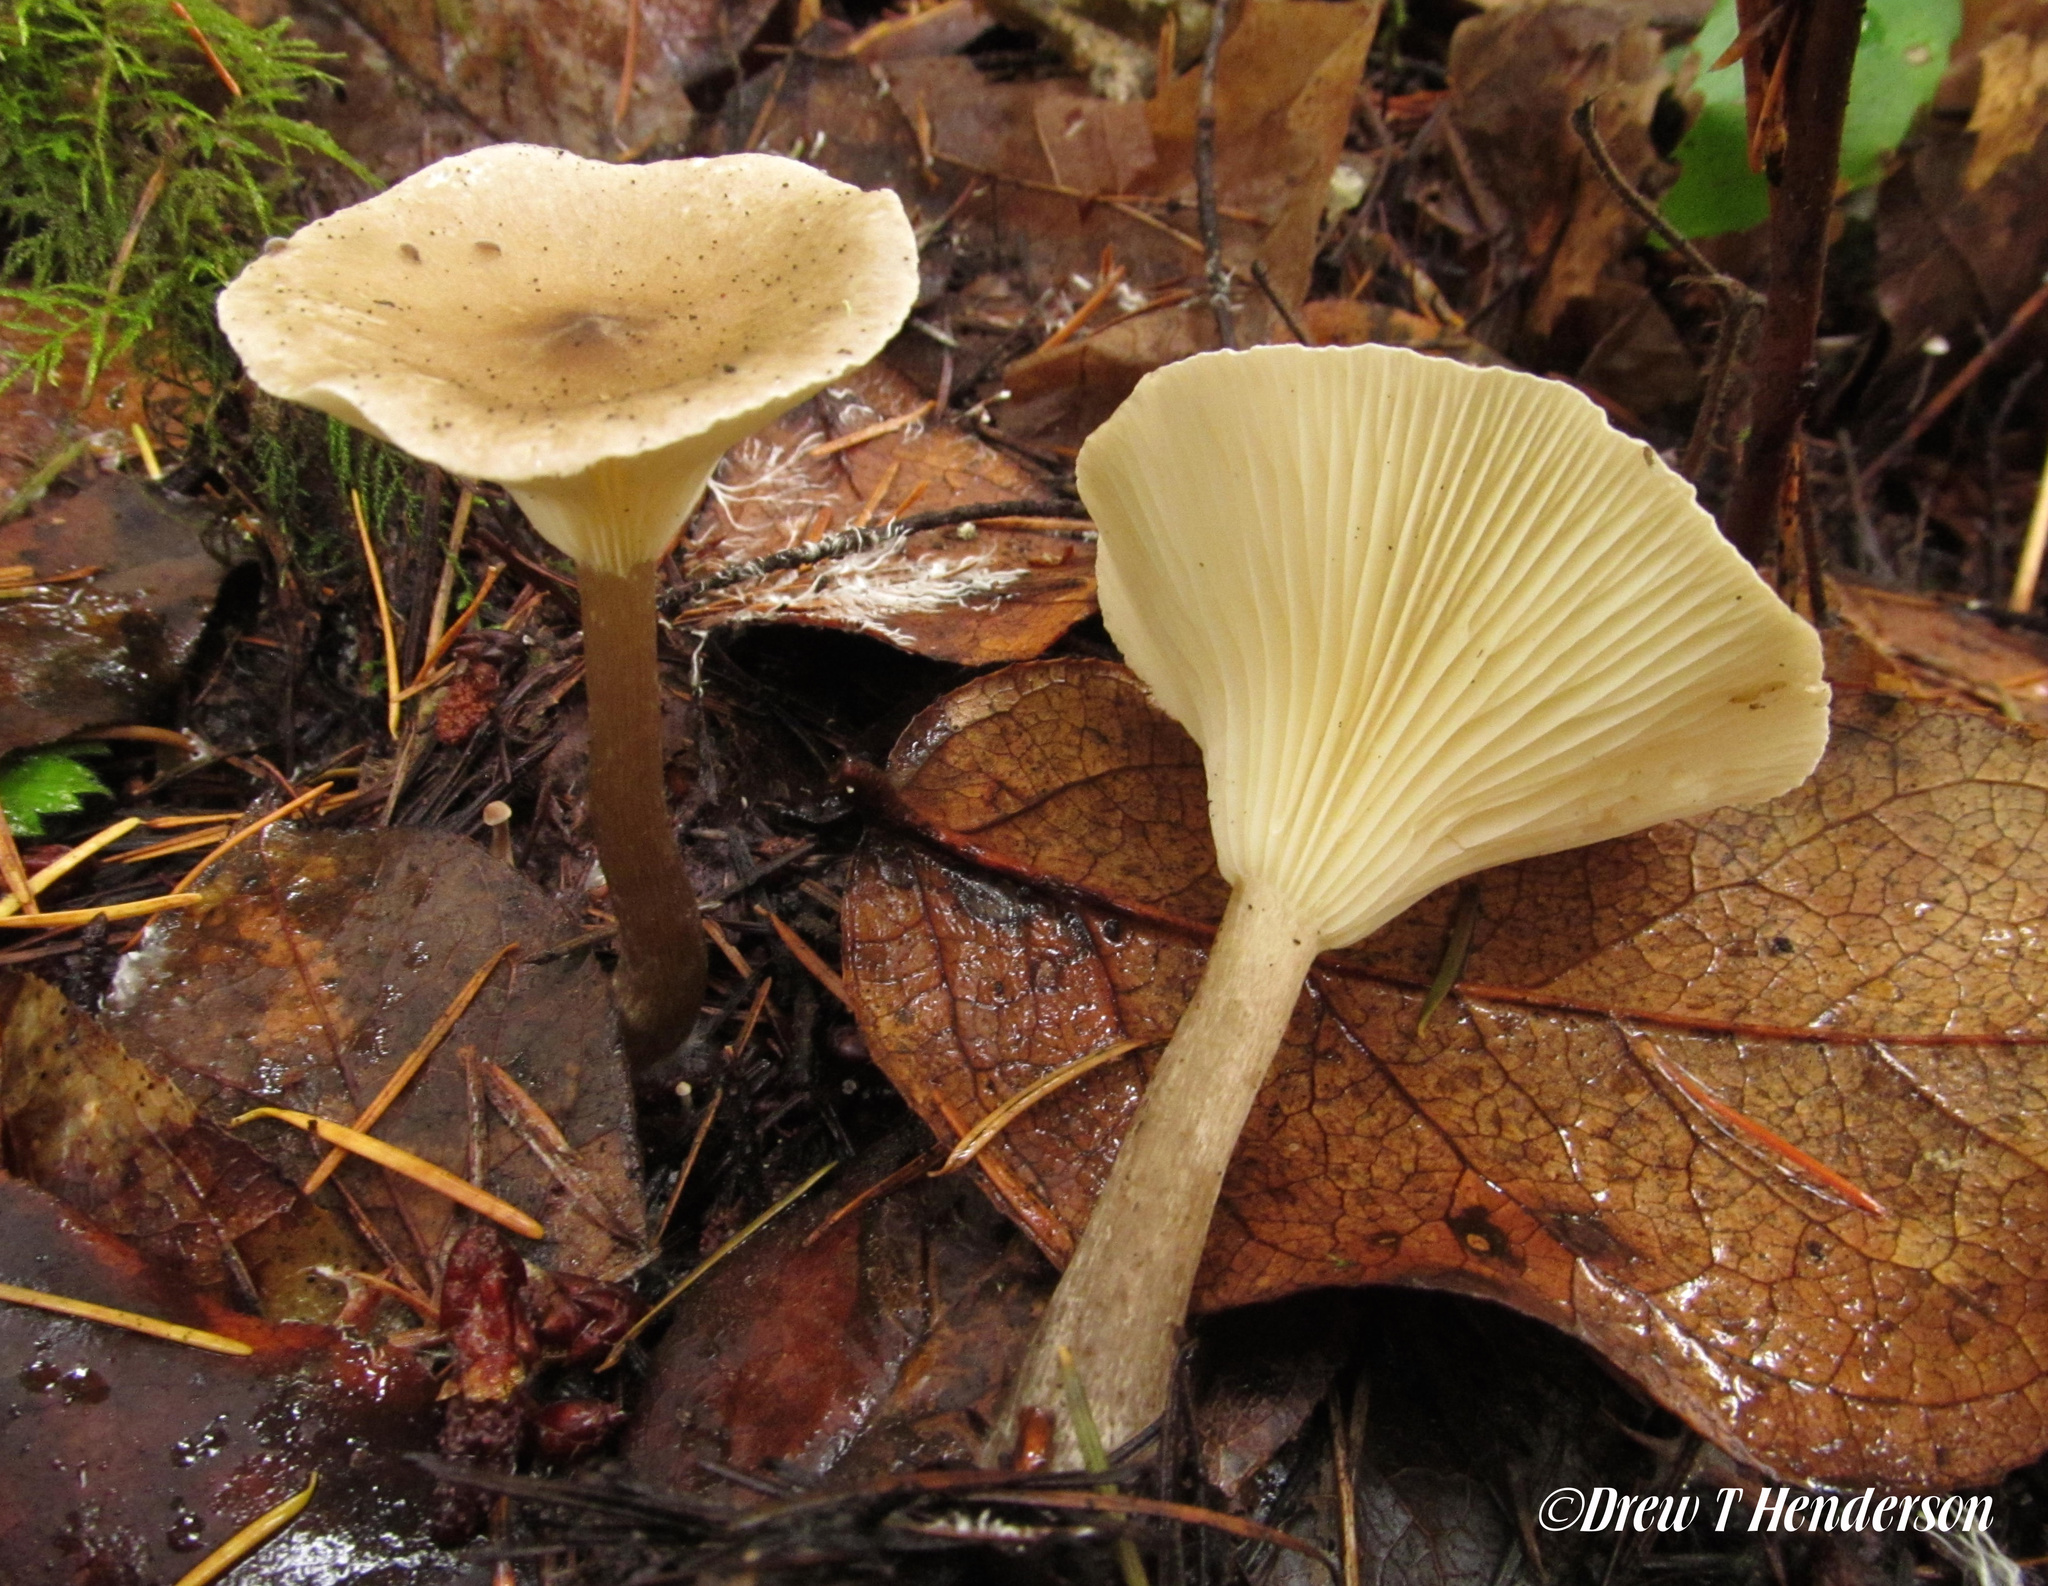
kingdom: Fungi
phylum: Basidiomycota
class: Agaricomycetes
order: Agaricales
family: Hygrophoraceae
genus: Ampulloclitocybe
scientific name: Ampulloclitocybe clavipes
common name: Club foot
